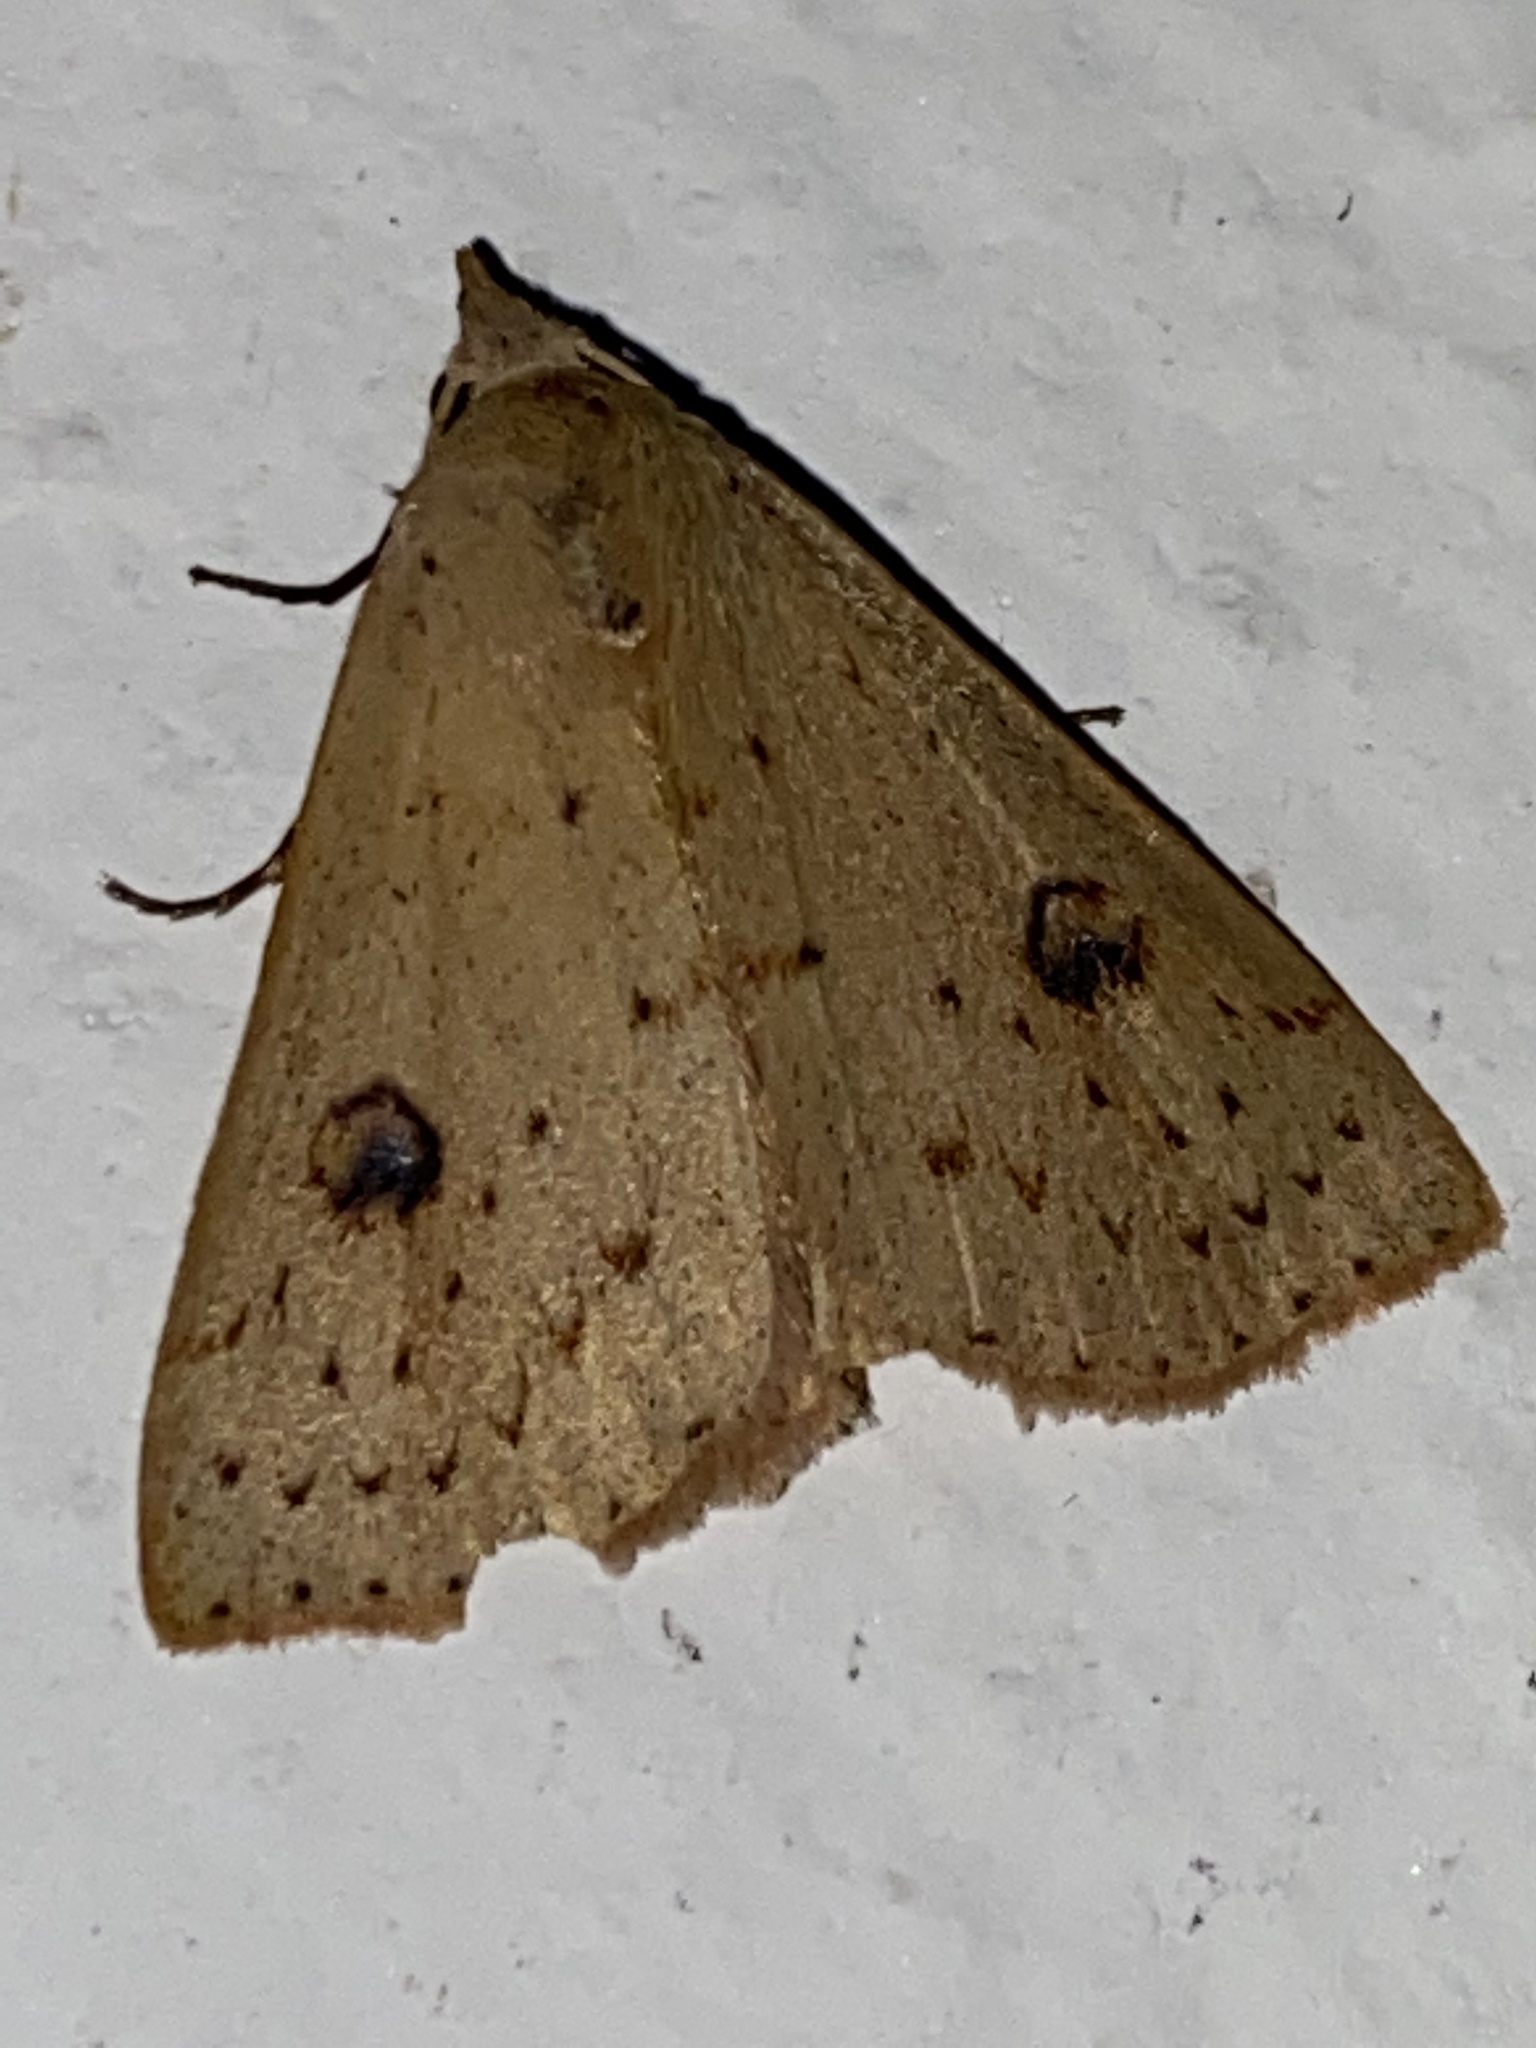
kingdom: Animalia
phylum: Arthropoda
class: Insecta
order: Lepidoptera
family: Erebidae
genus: Scolecocampa
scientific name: Scolecocampa
